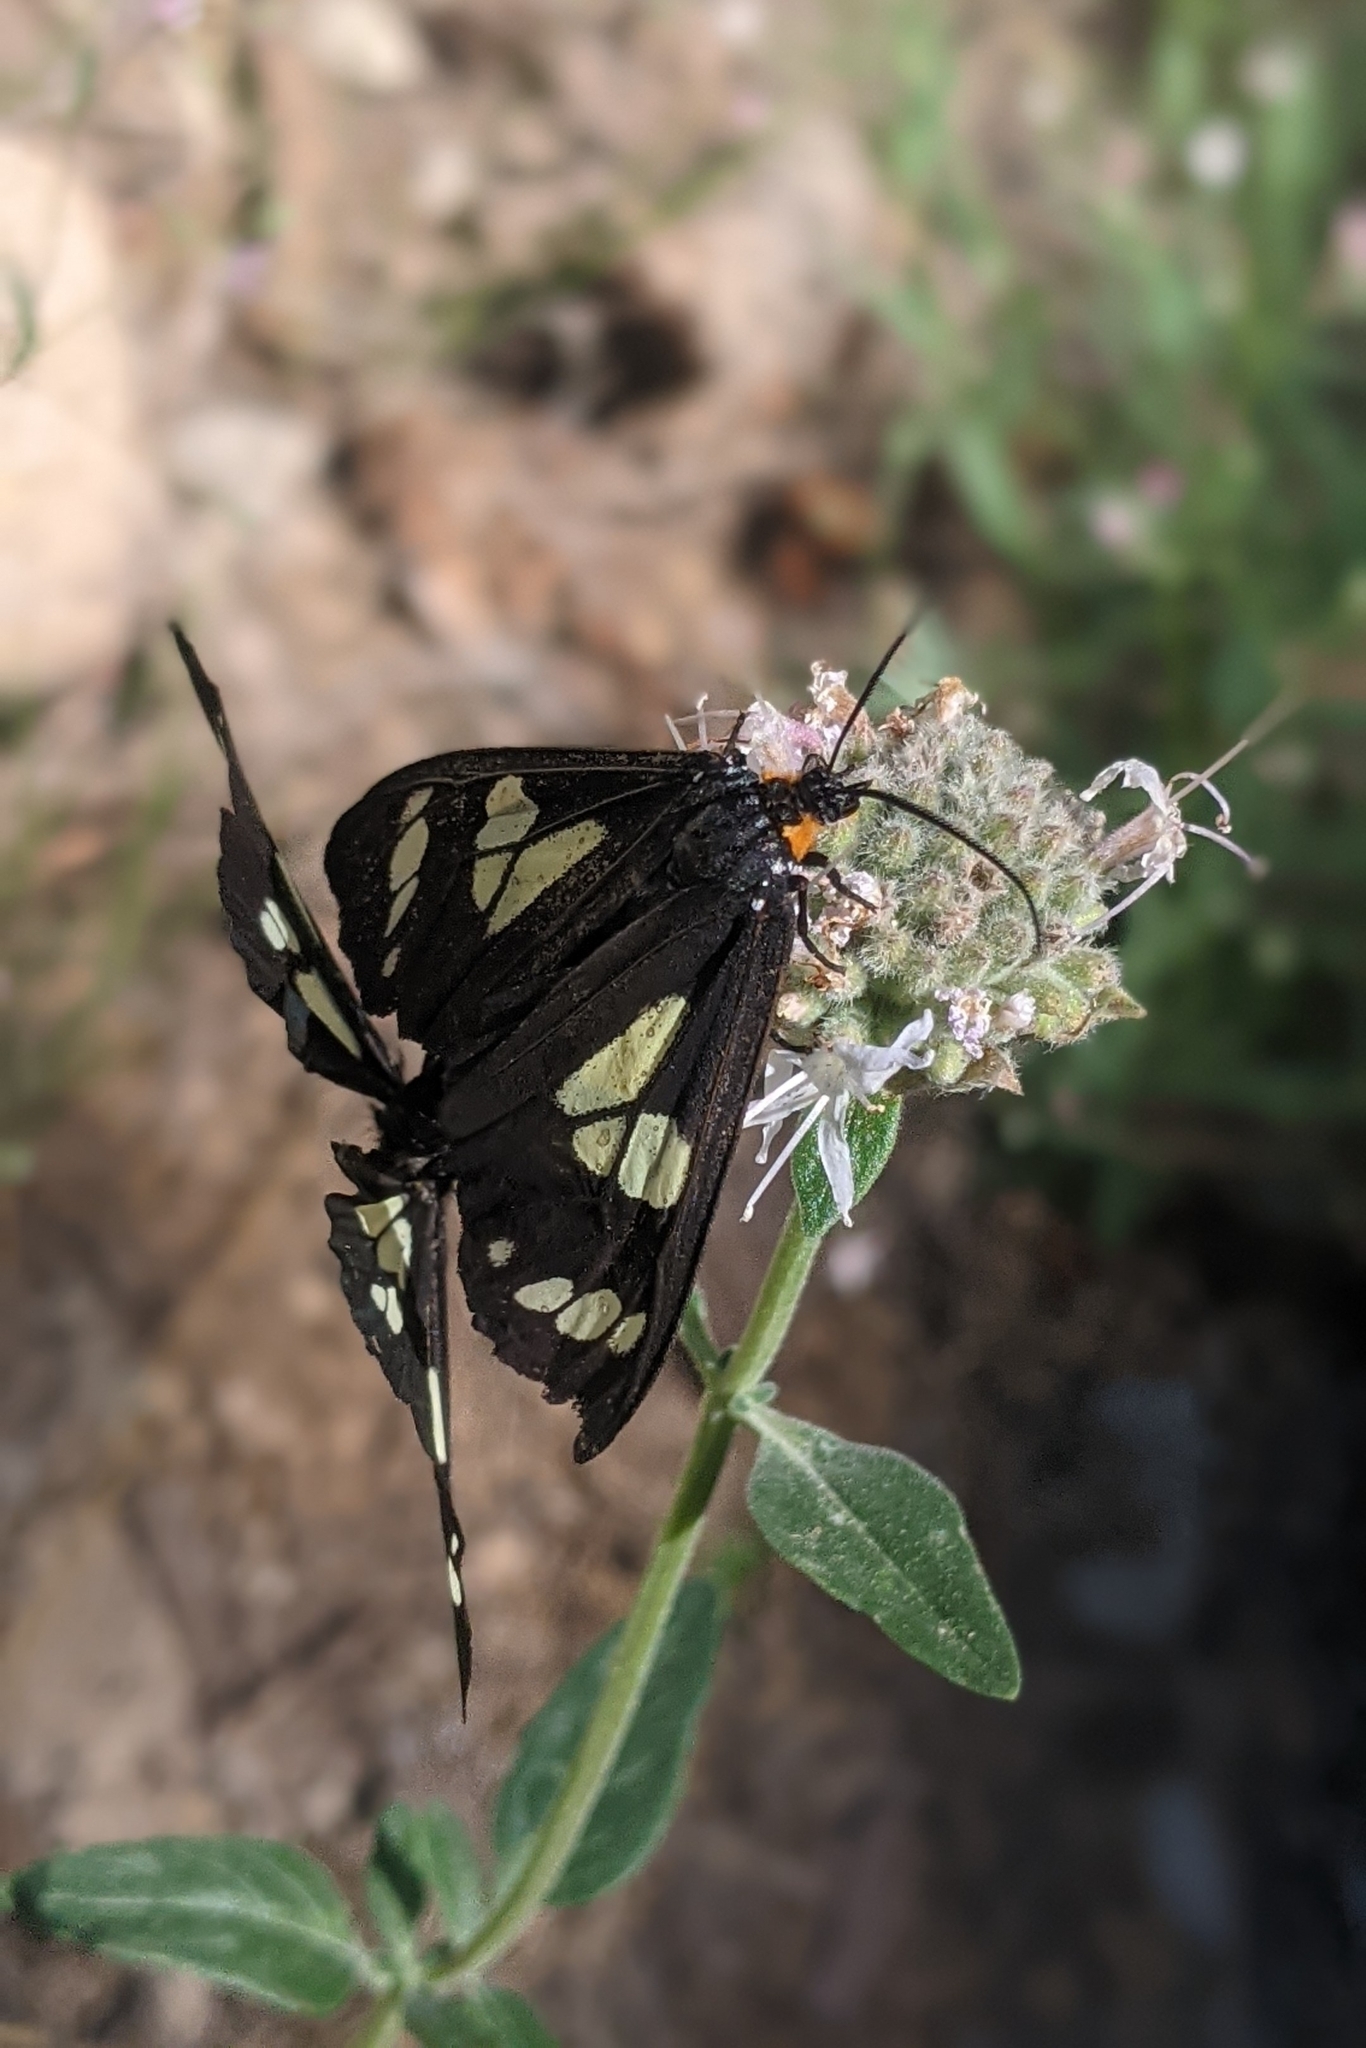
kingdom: Animalia
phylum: Arthropoda
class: Insecta
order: Lepidoptera
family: Erebidae
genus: Gnophaela
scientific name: Gnophaela latipennis
